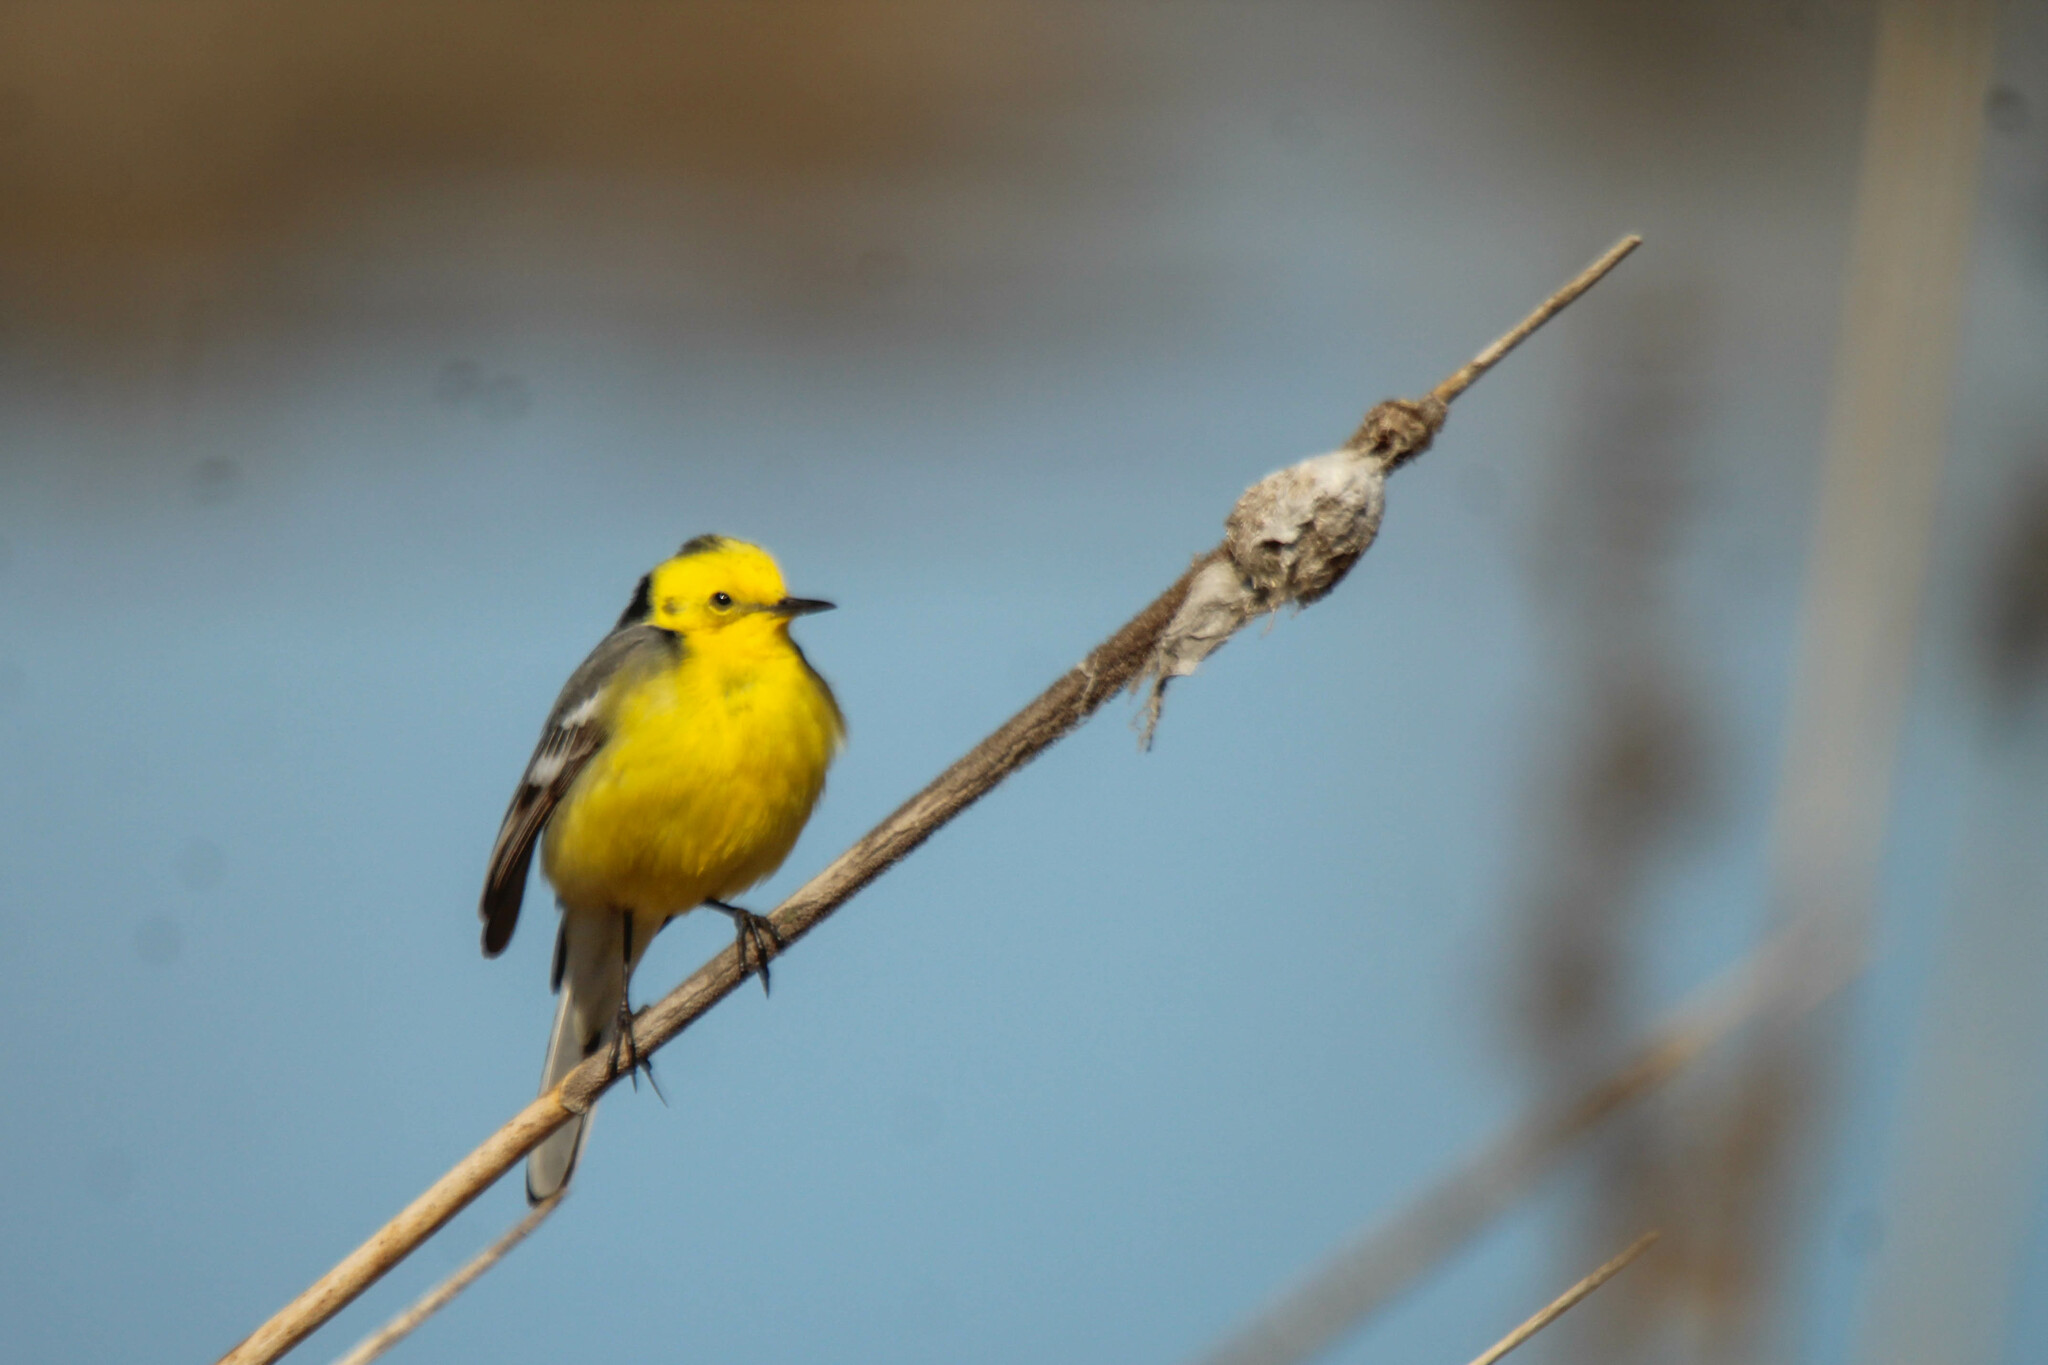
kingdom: Animalia
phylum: Chordata
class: Aves
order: Passeriformes
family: Motacillidae
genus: Motacilla
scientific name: Motacilla citreola
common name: Citrine wagtail
